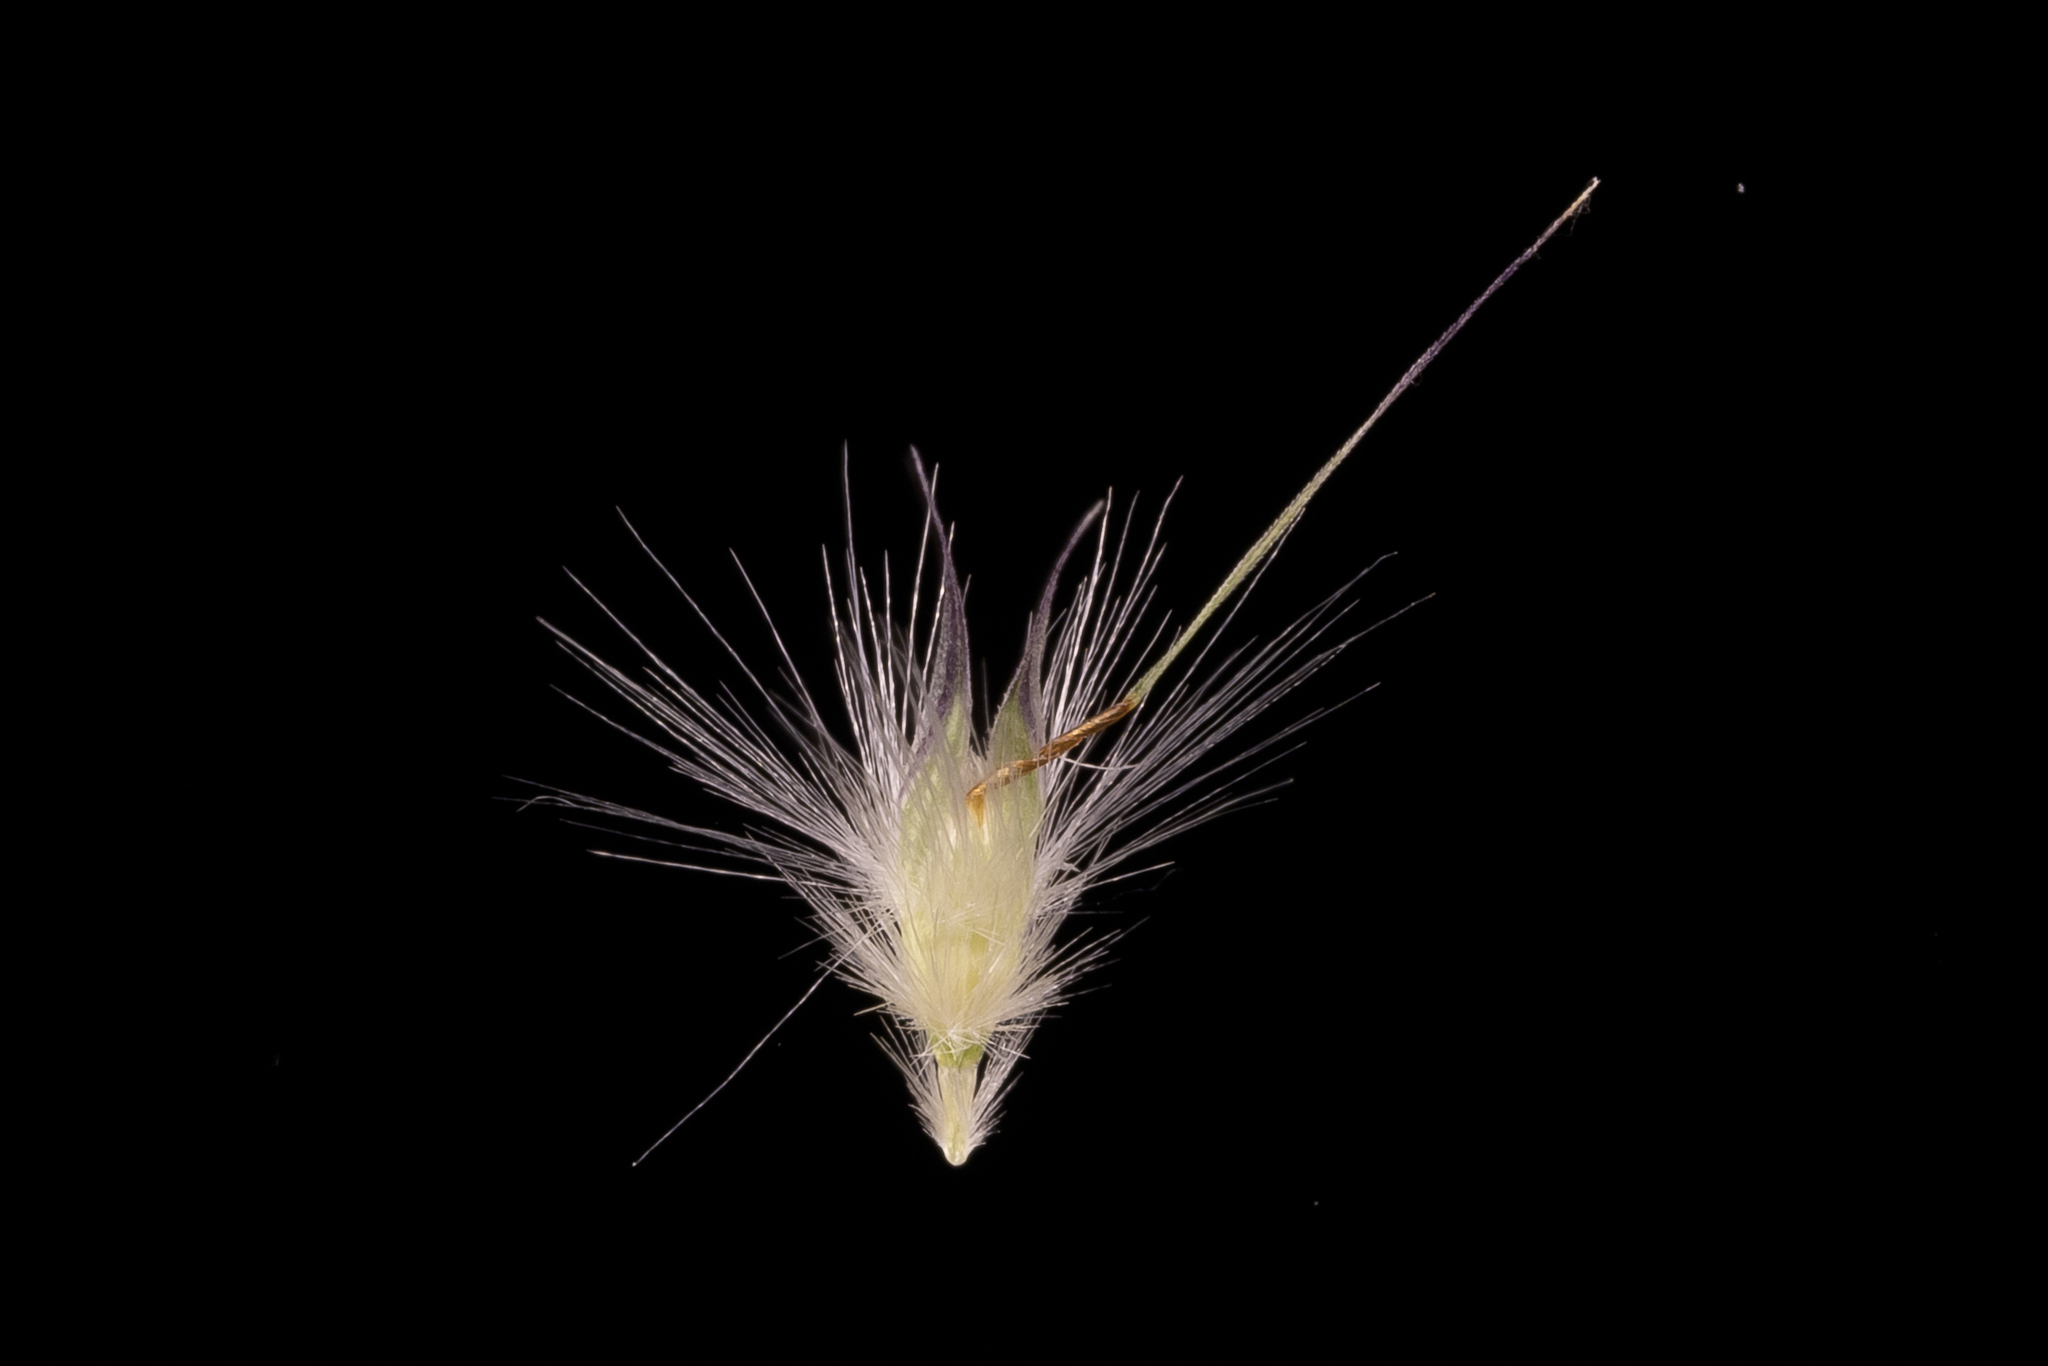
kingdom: Plantae
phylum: Tracheophyta
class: Liliopsida
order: Poales
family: Poaceae
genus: Rytidosperma
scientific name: Rytidosperma tenuius
